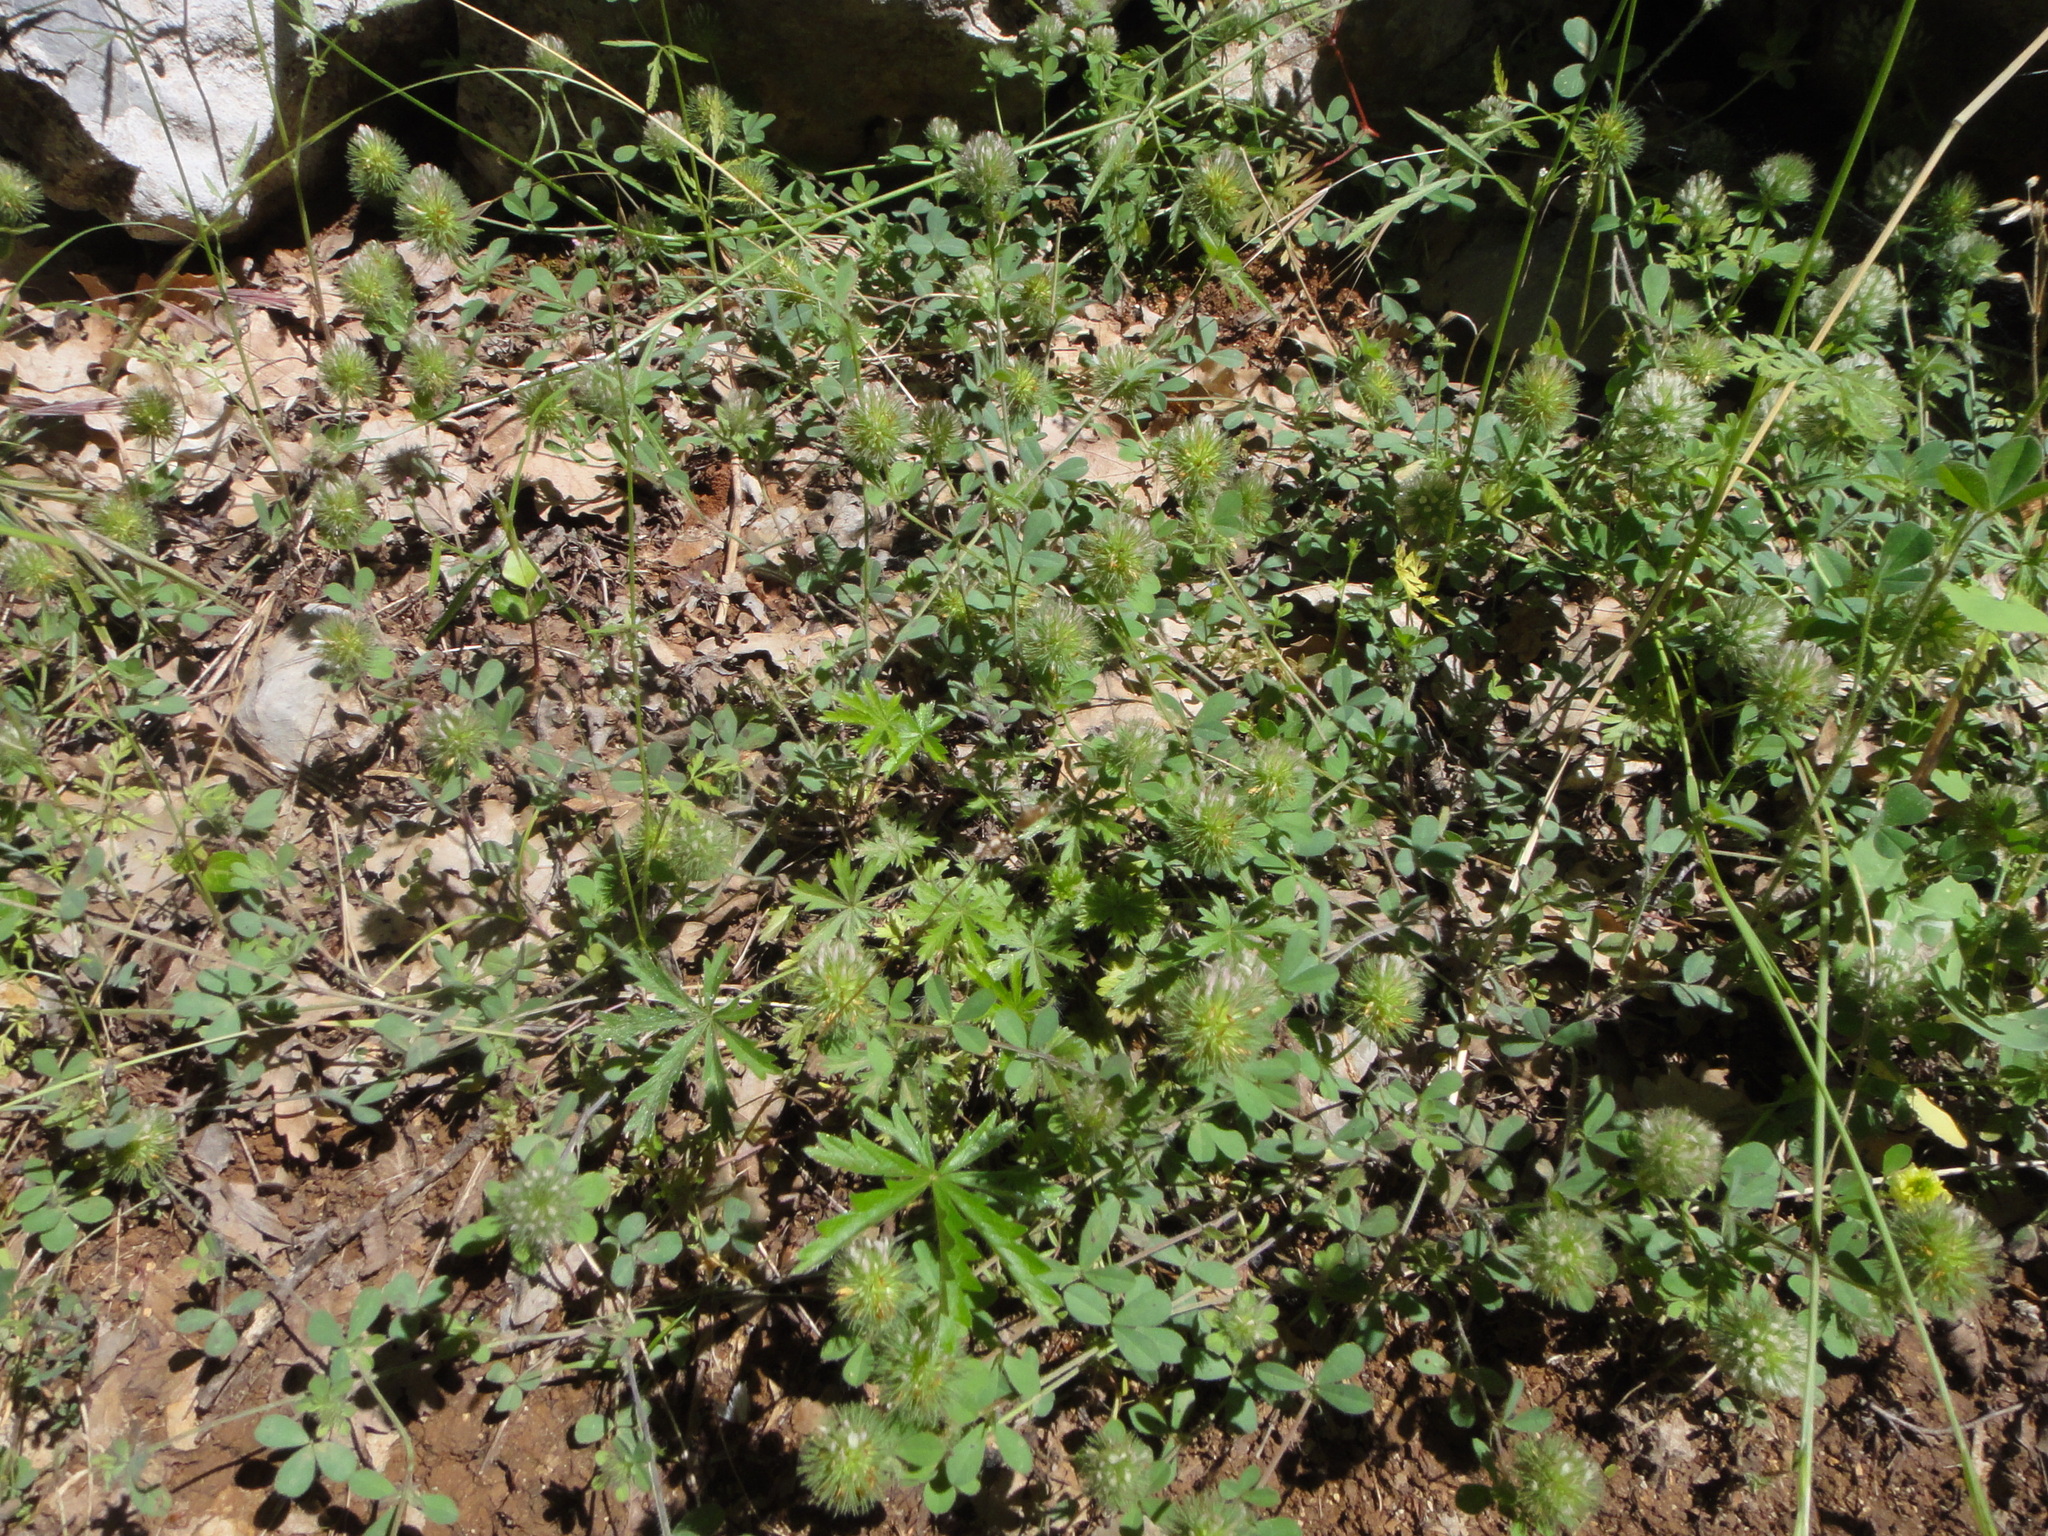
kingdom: Plantae
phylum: Tracheophyta
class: Magnoliopsida
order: Fabales
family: Fabaceae
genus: Trifolium
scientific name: Trifolium lappaceum
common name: Bur clover
